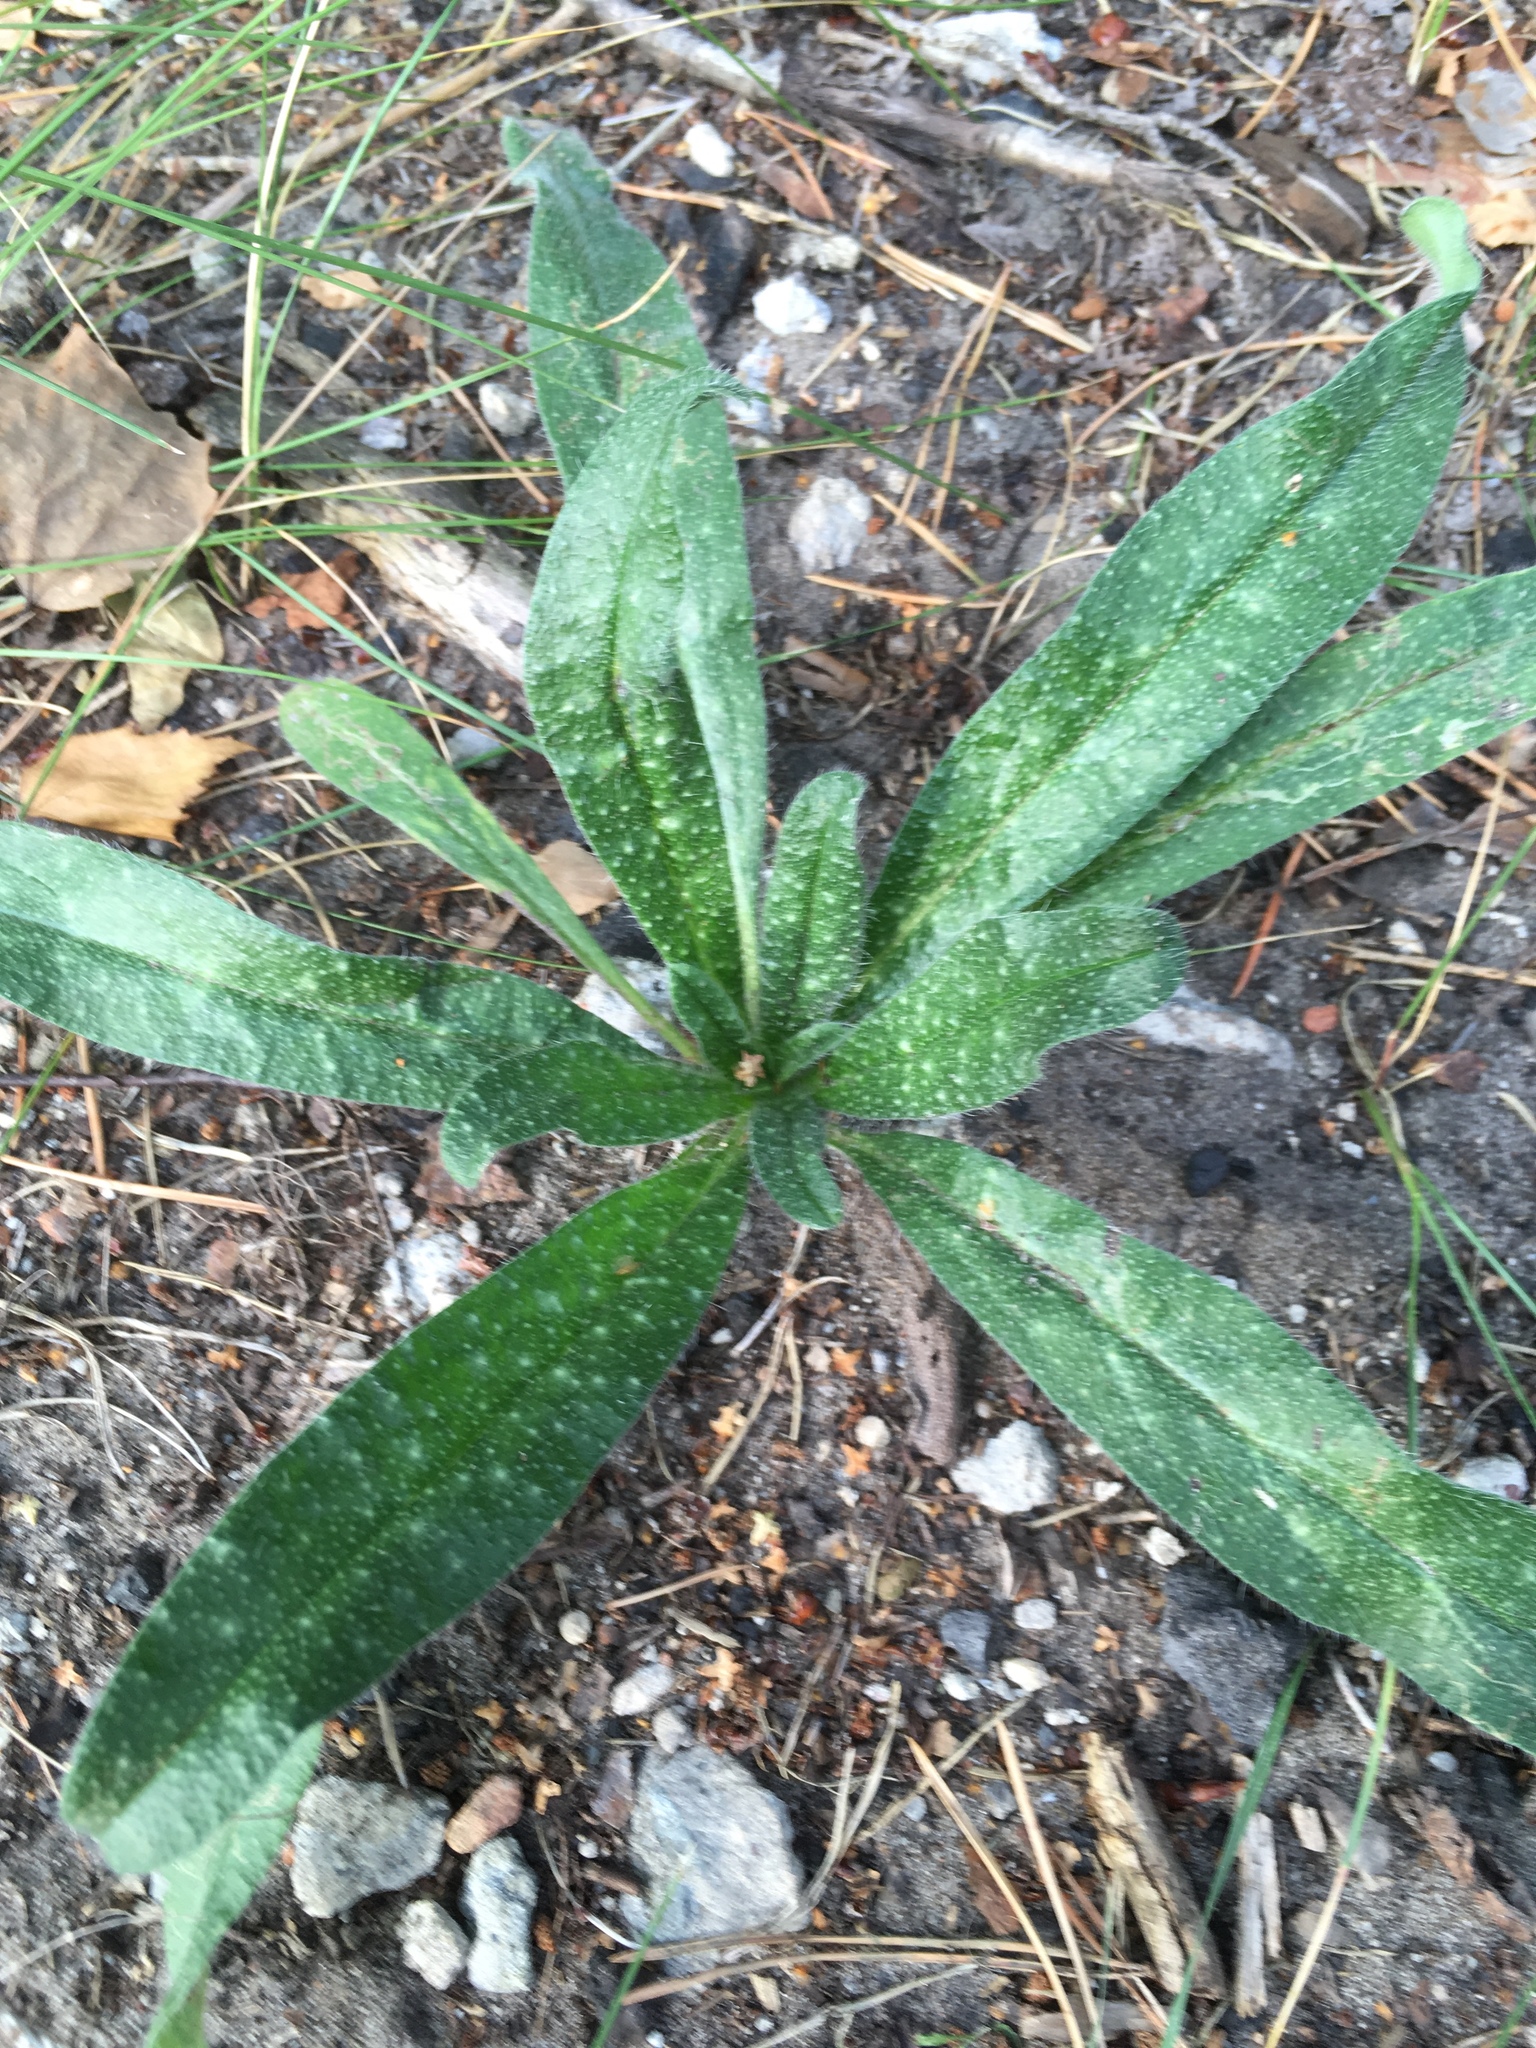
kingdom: Plantae
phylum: Tracheophyta
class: Magnoliopsida
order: Boraginales
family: Boraginaceae
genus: Echium
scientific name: Echium vulgare
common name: Common viper's bugloss
